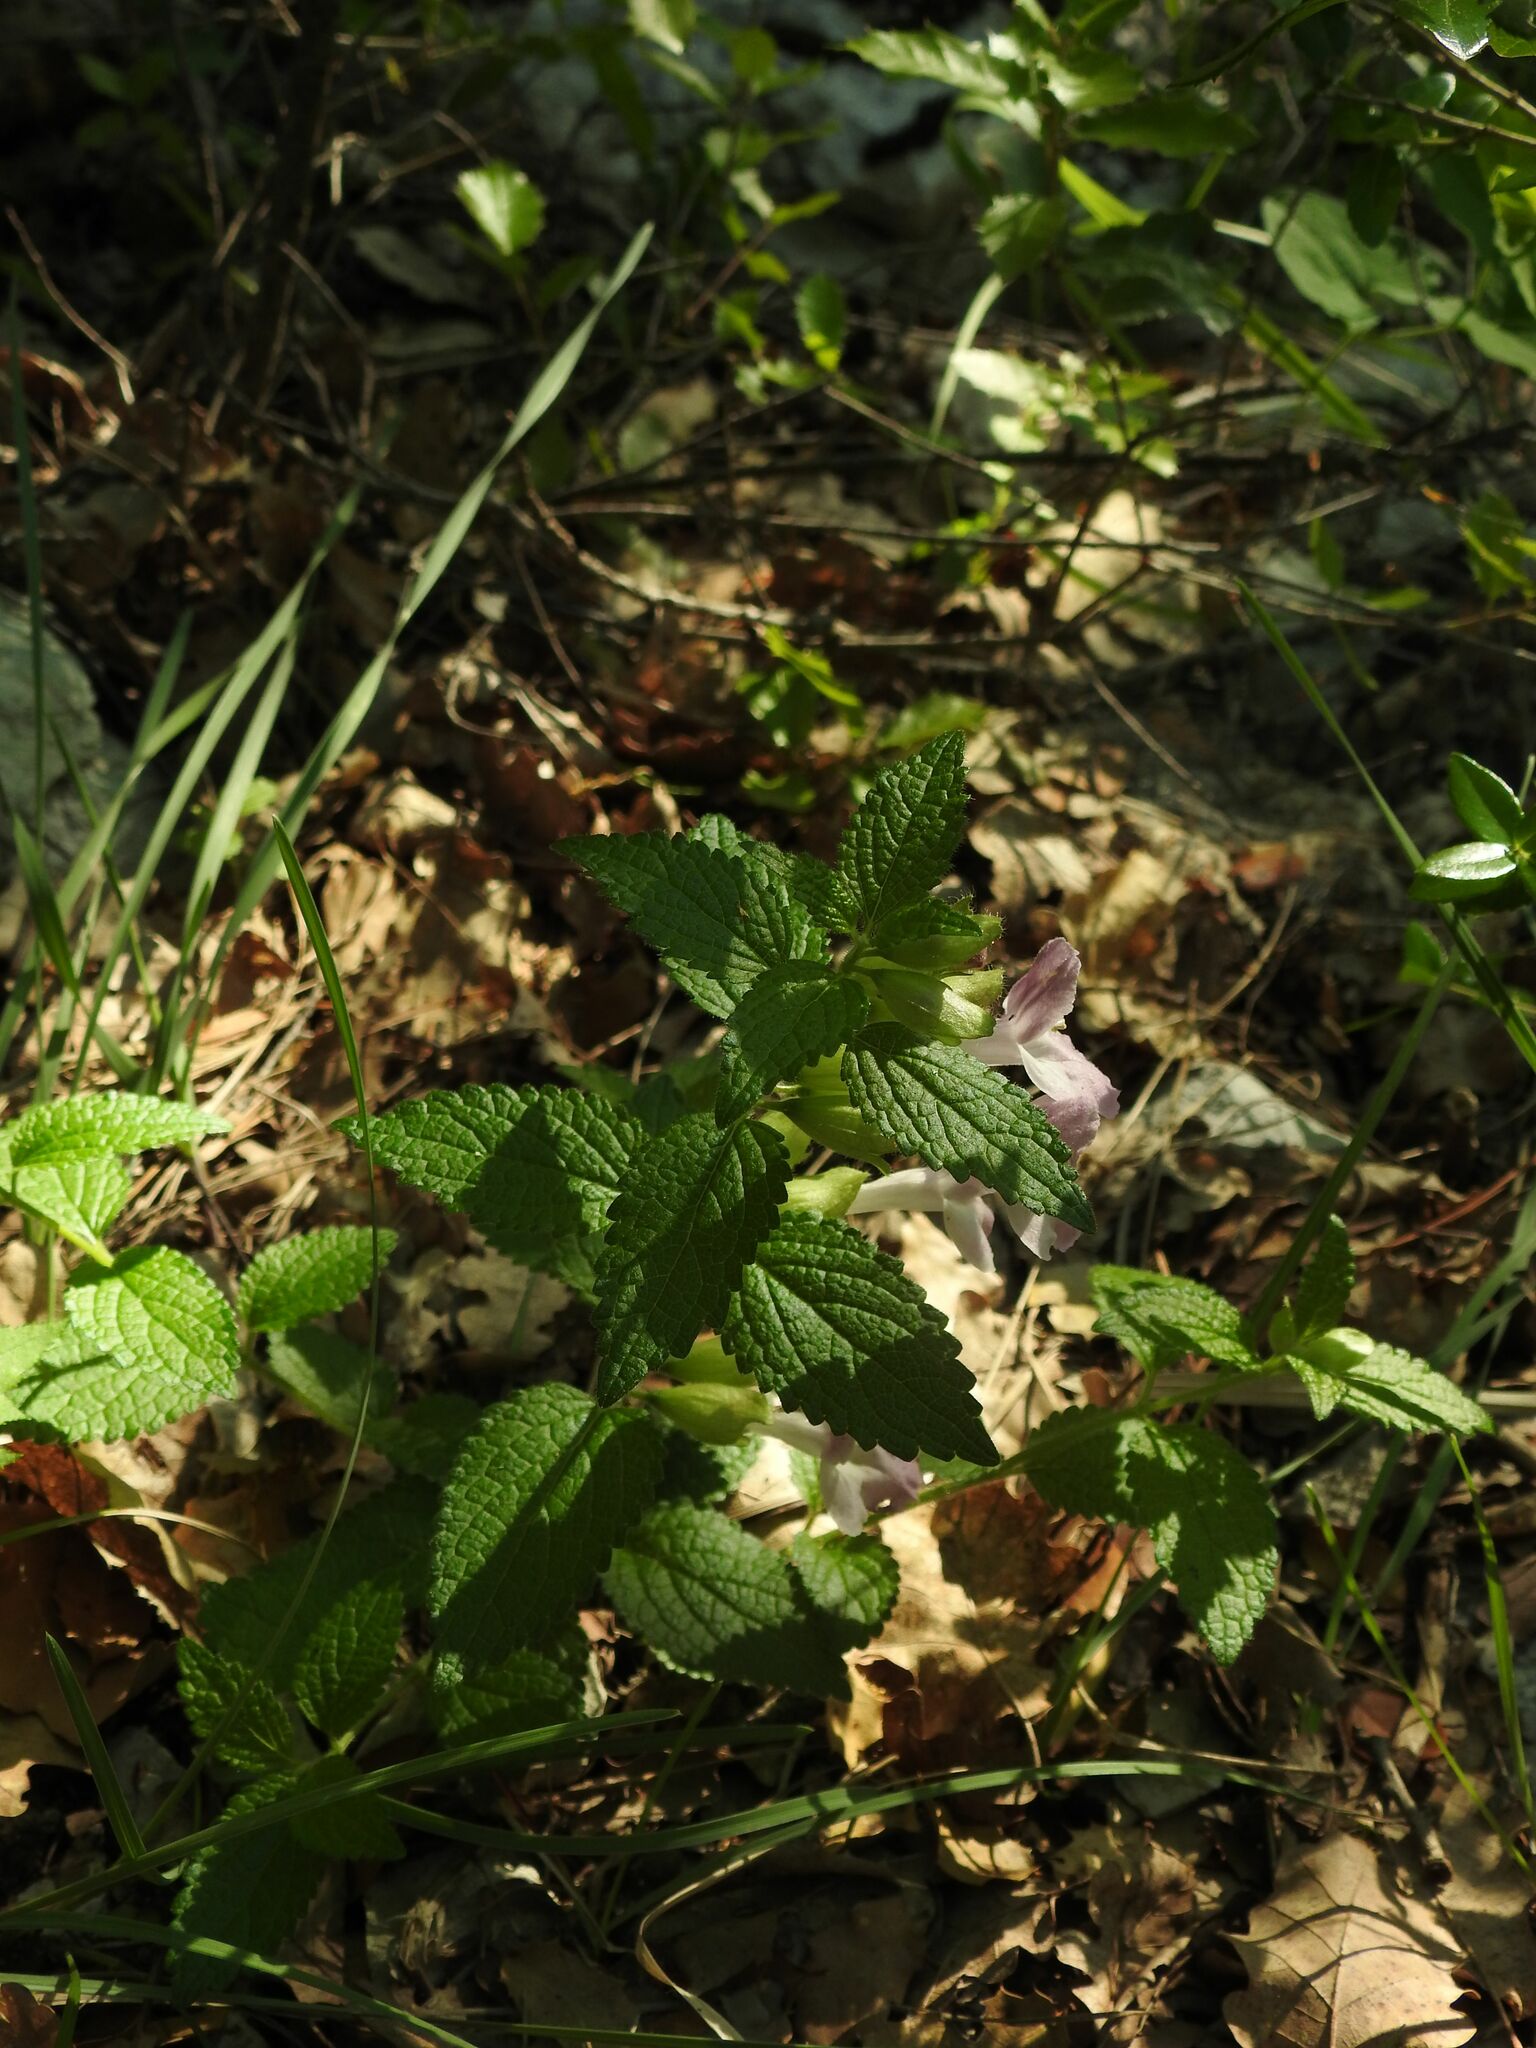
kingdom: Plantae
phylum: Tracheophyta
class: Magnoliopsida
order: Lamiales
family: Lamiaceae
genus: Melittis
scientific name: Melittis melissophyllum
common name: Bastard balm
